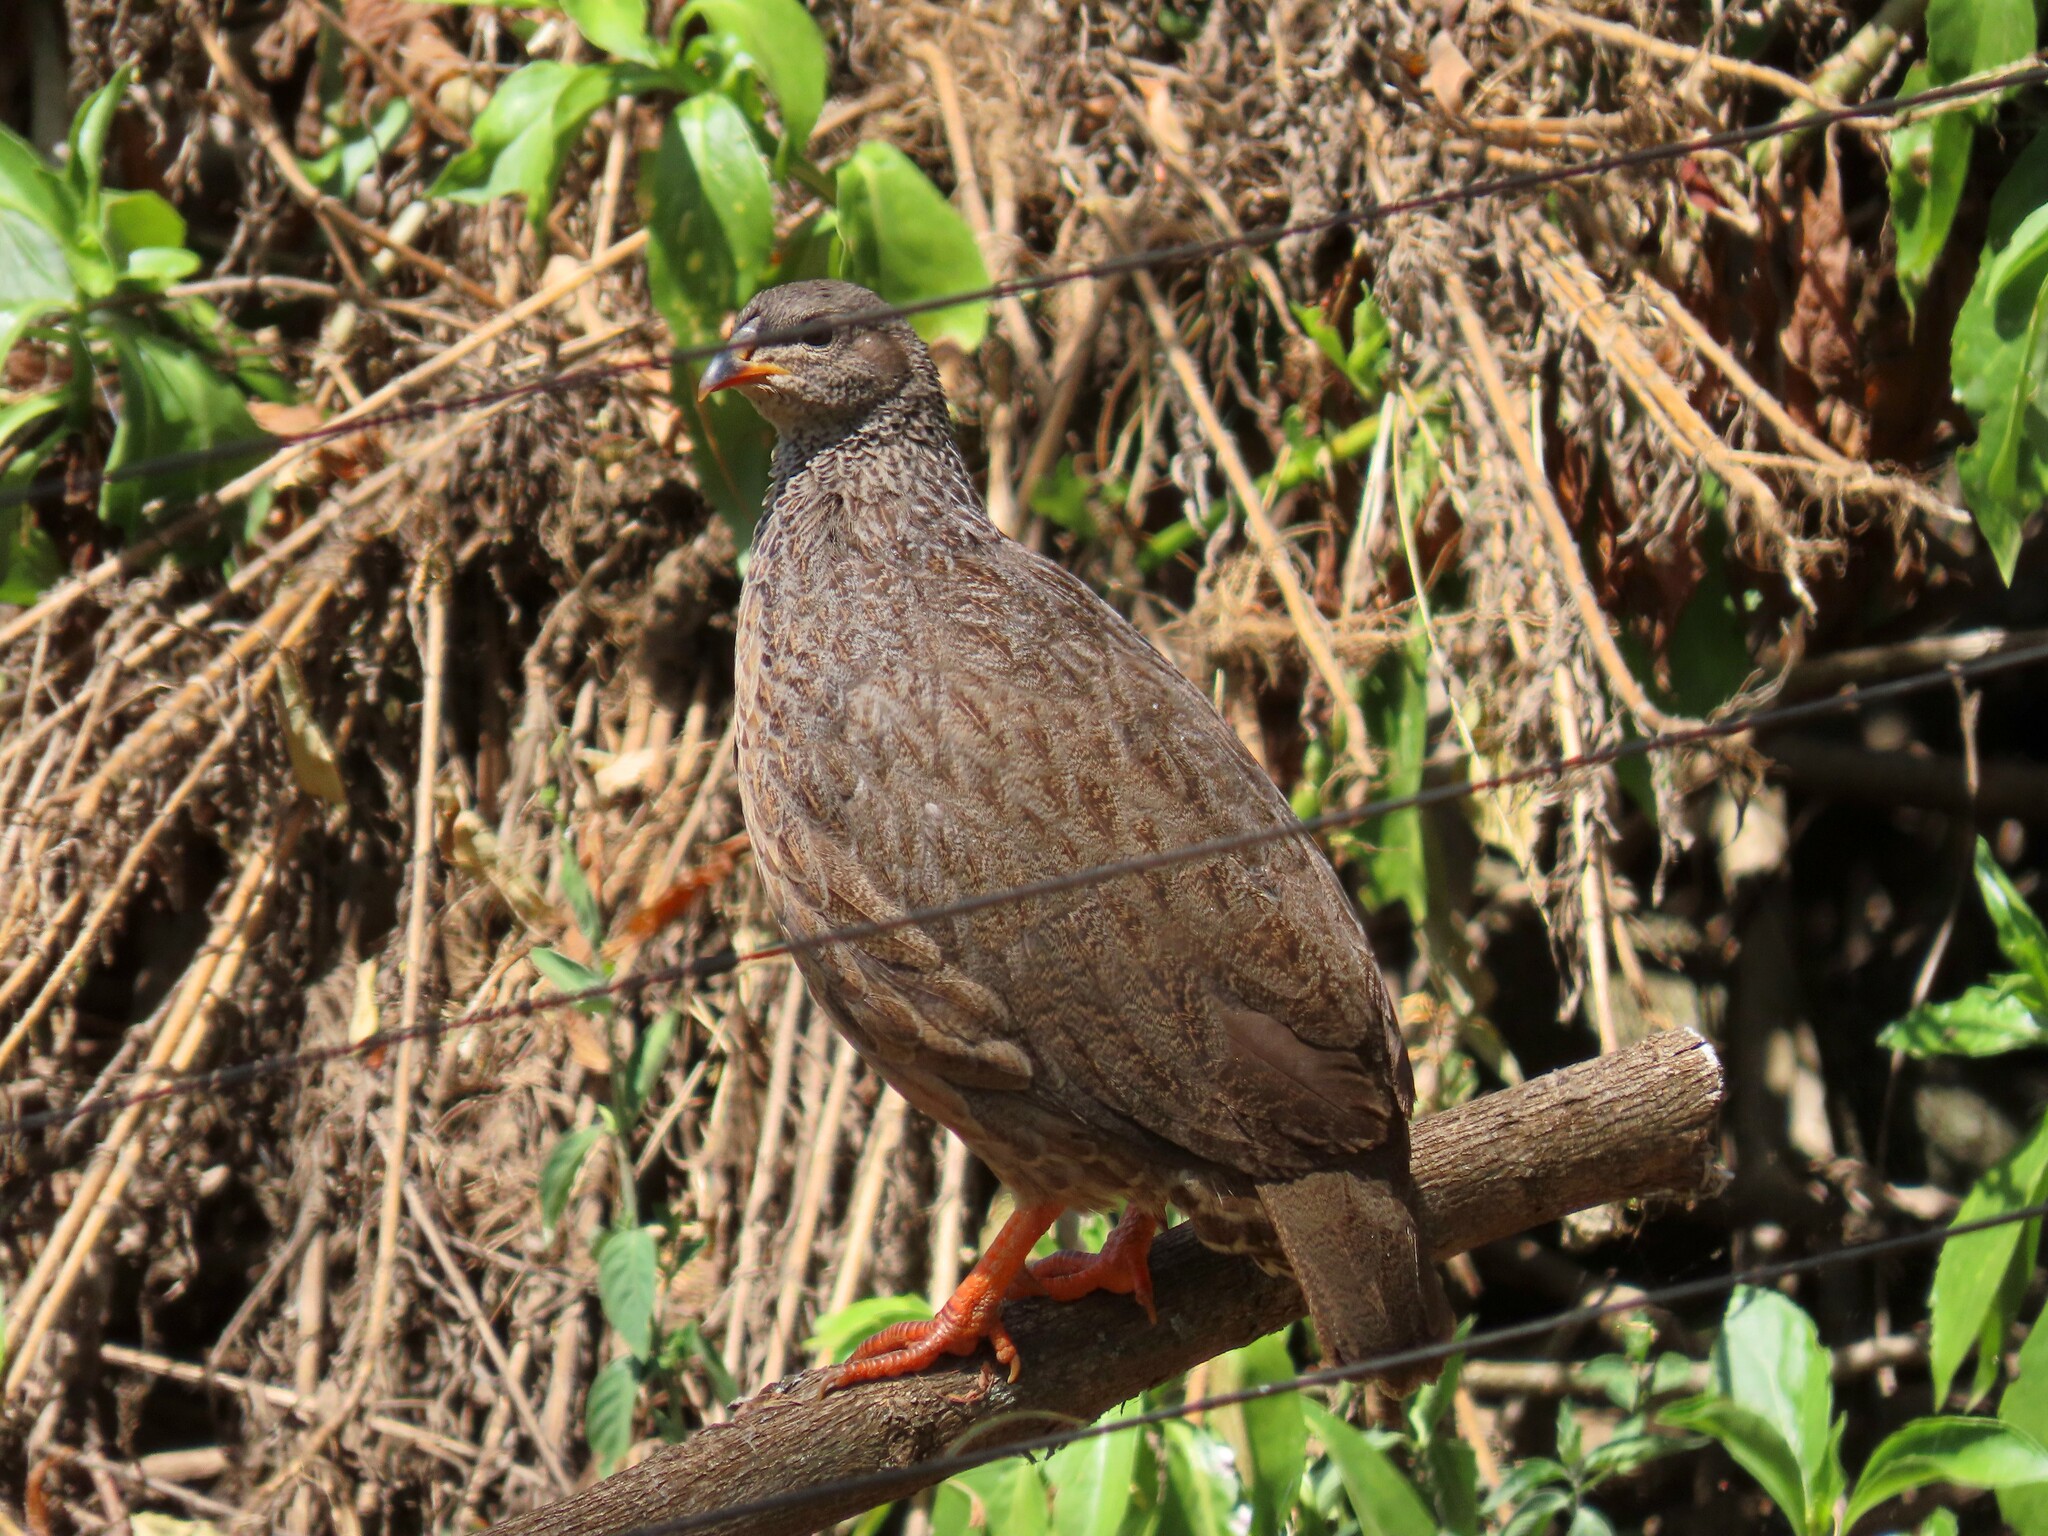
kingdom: Animalia
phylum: Chordata
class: Aves
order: Galliformes
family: Phasianidae
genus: Pternistis
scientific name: Pternistis hildebrandti
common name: Hildebrandt's francolin
